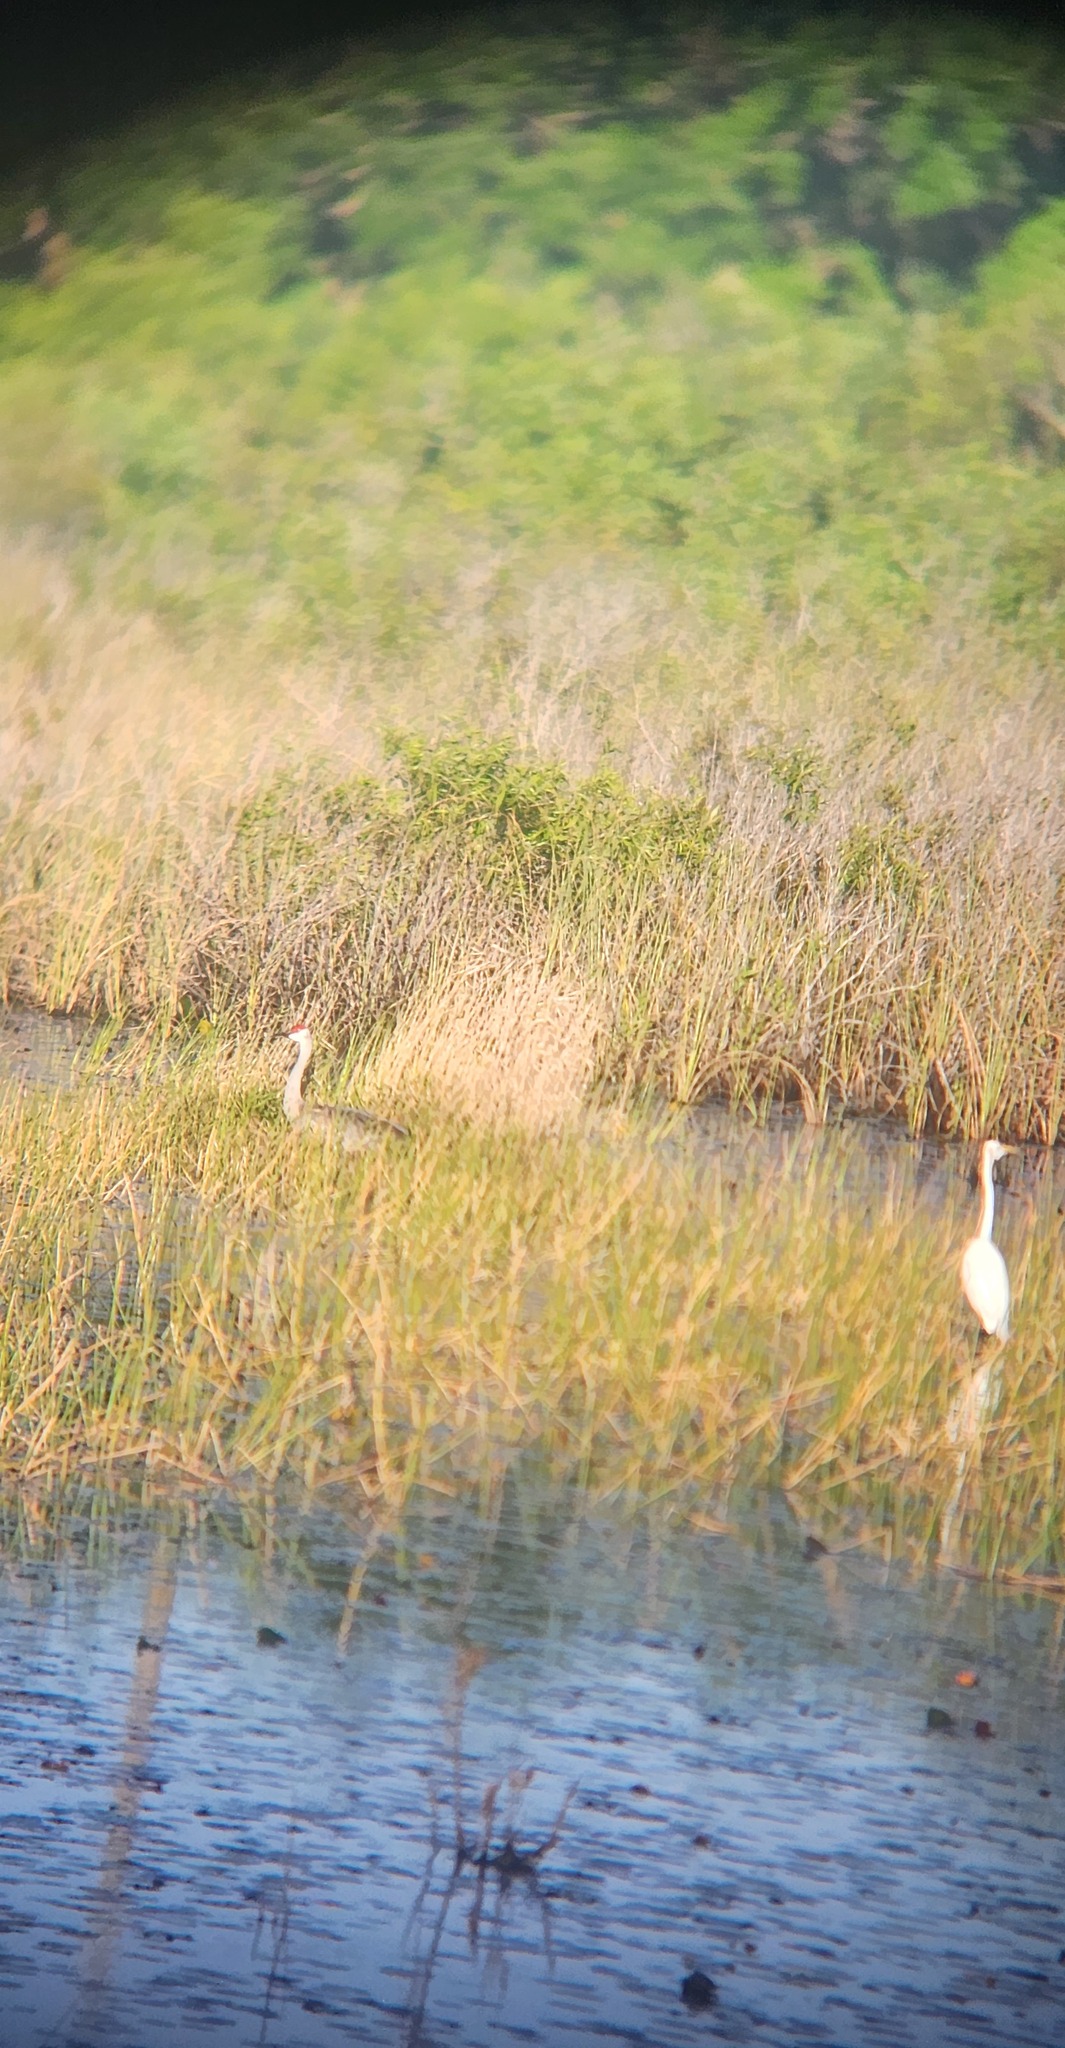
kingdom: Animalia
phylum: Chordata
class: Aves
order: Gruiformes
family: Gruidae
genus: Grus
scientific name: Grus canadensis
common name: Sandhill crane
